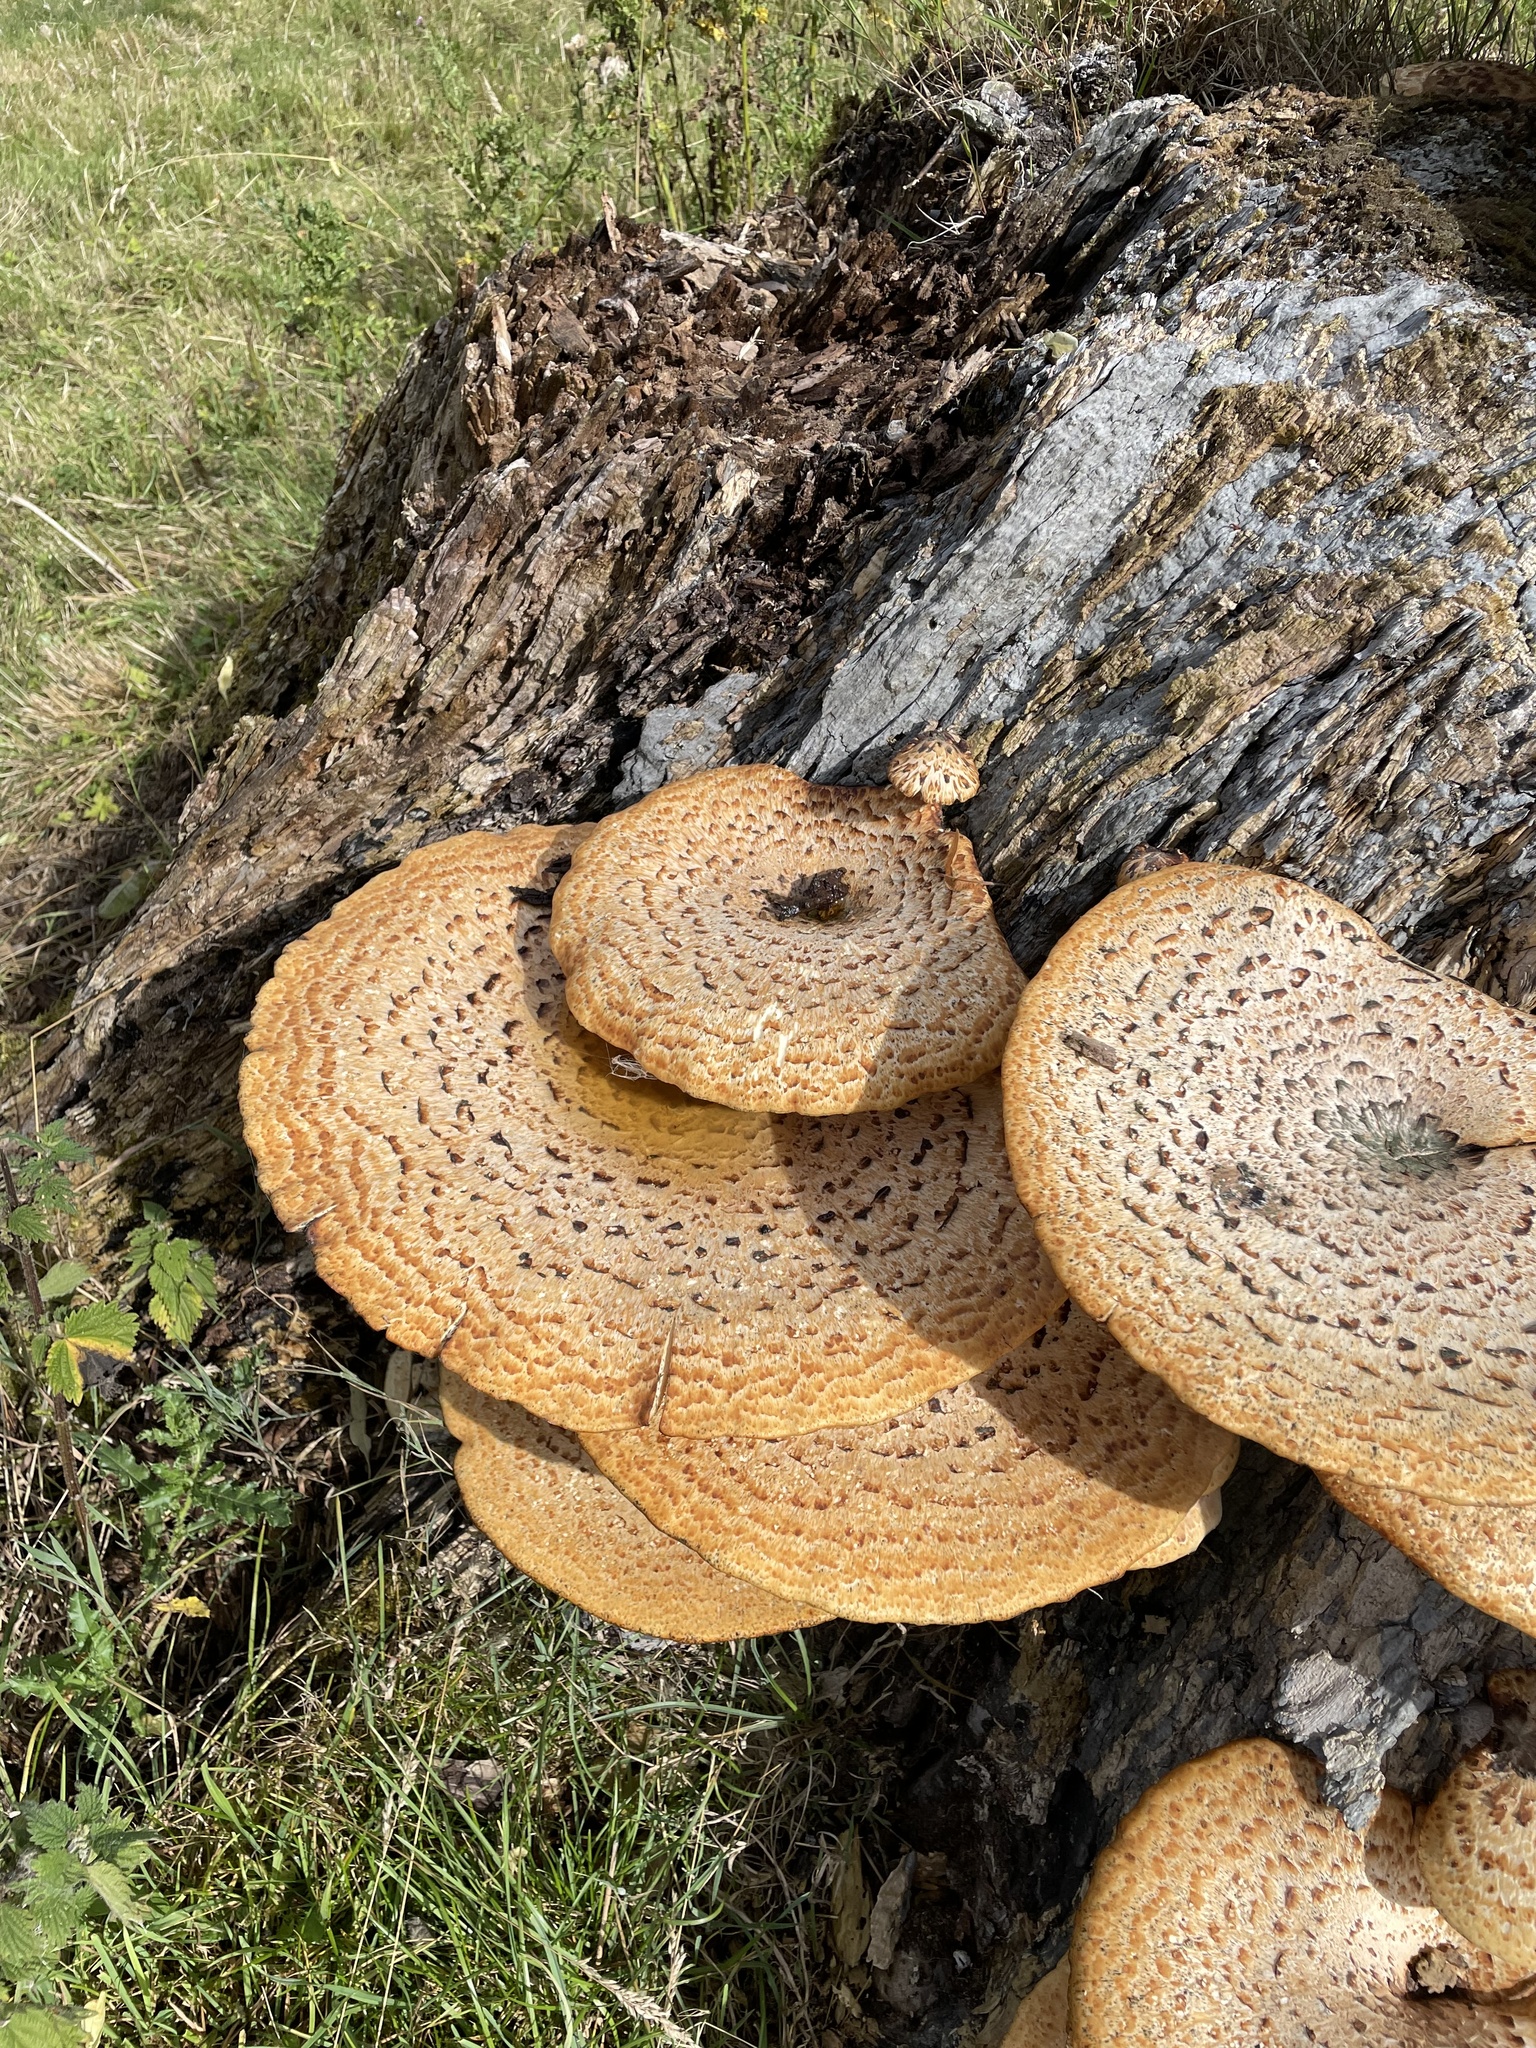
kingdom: Fungi
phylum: Basidiomycota
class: Agaricomycetes
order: Polyporales
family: Polyporaceae
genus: Cerioporus
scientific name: Cerioporus squamosus
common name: Dryad's saddle
